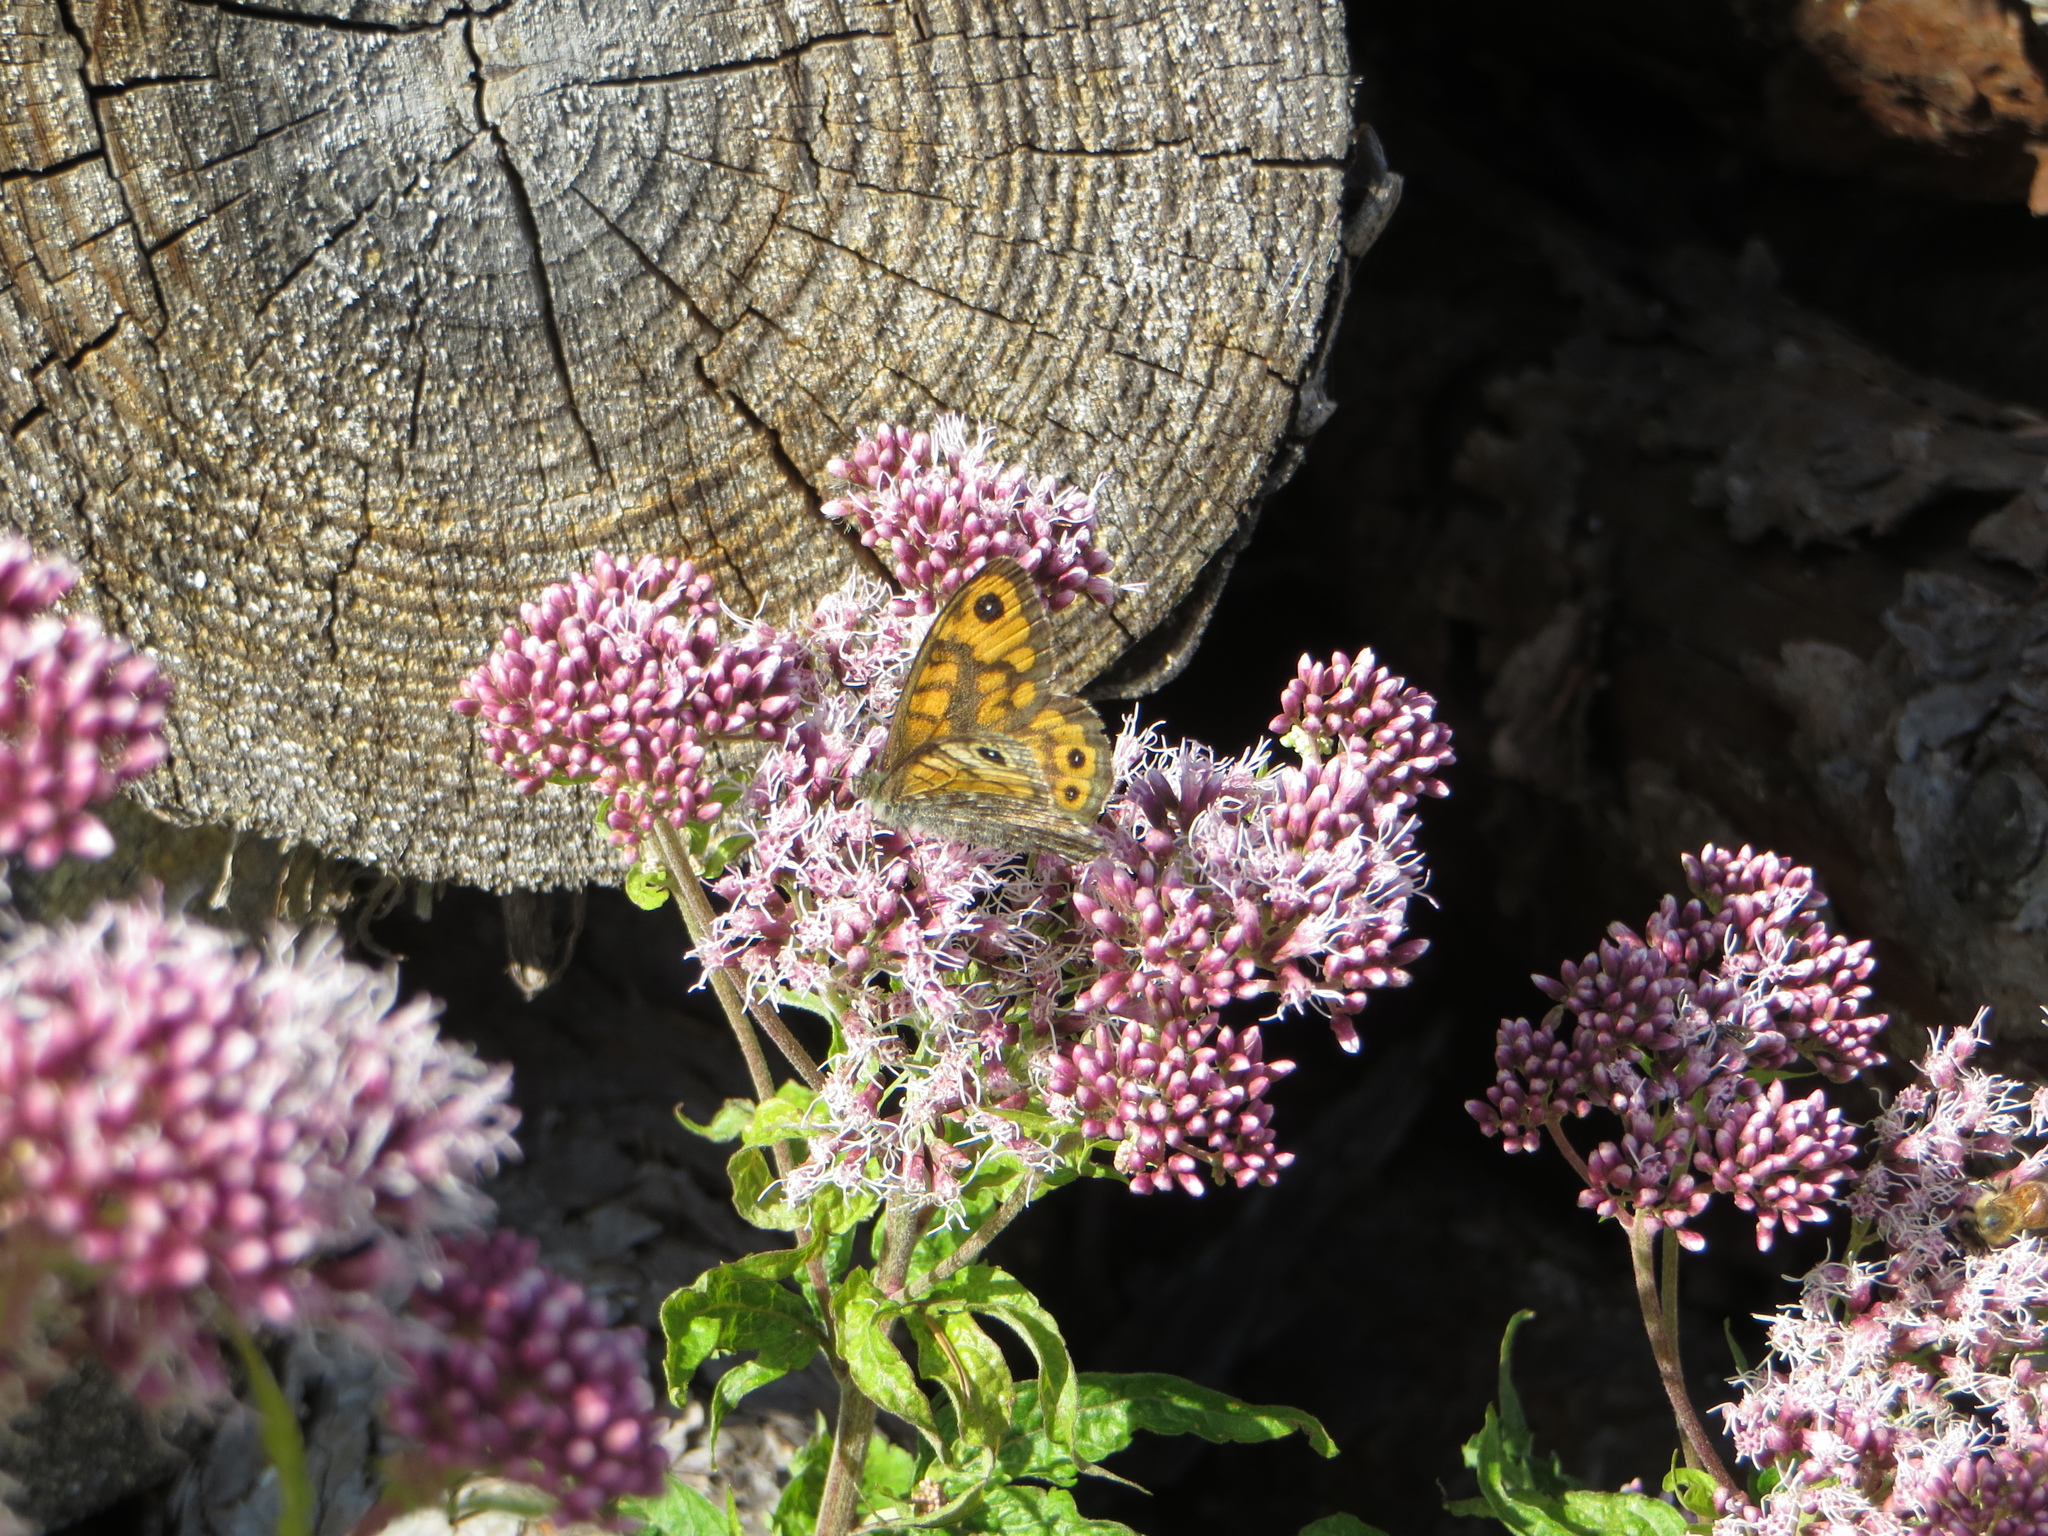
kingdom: Animalia
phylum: Arthropoda
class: Insecta
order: Lepidoptera
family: Nymphalidae
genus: Pararge
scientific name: Pararge Lasiommata megera
